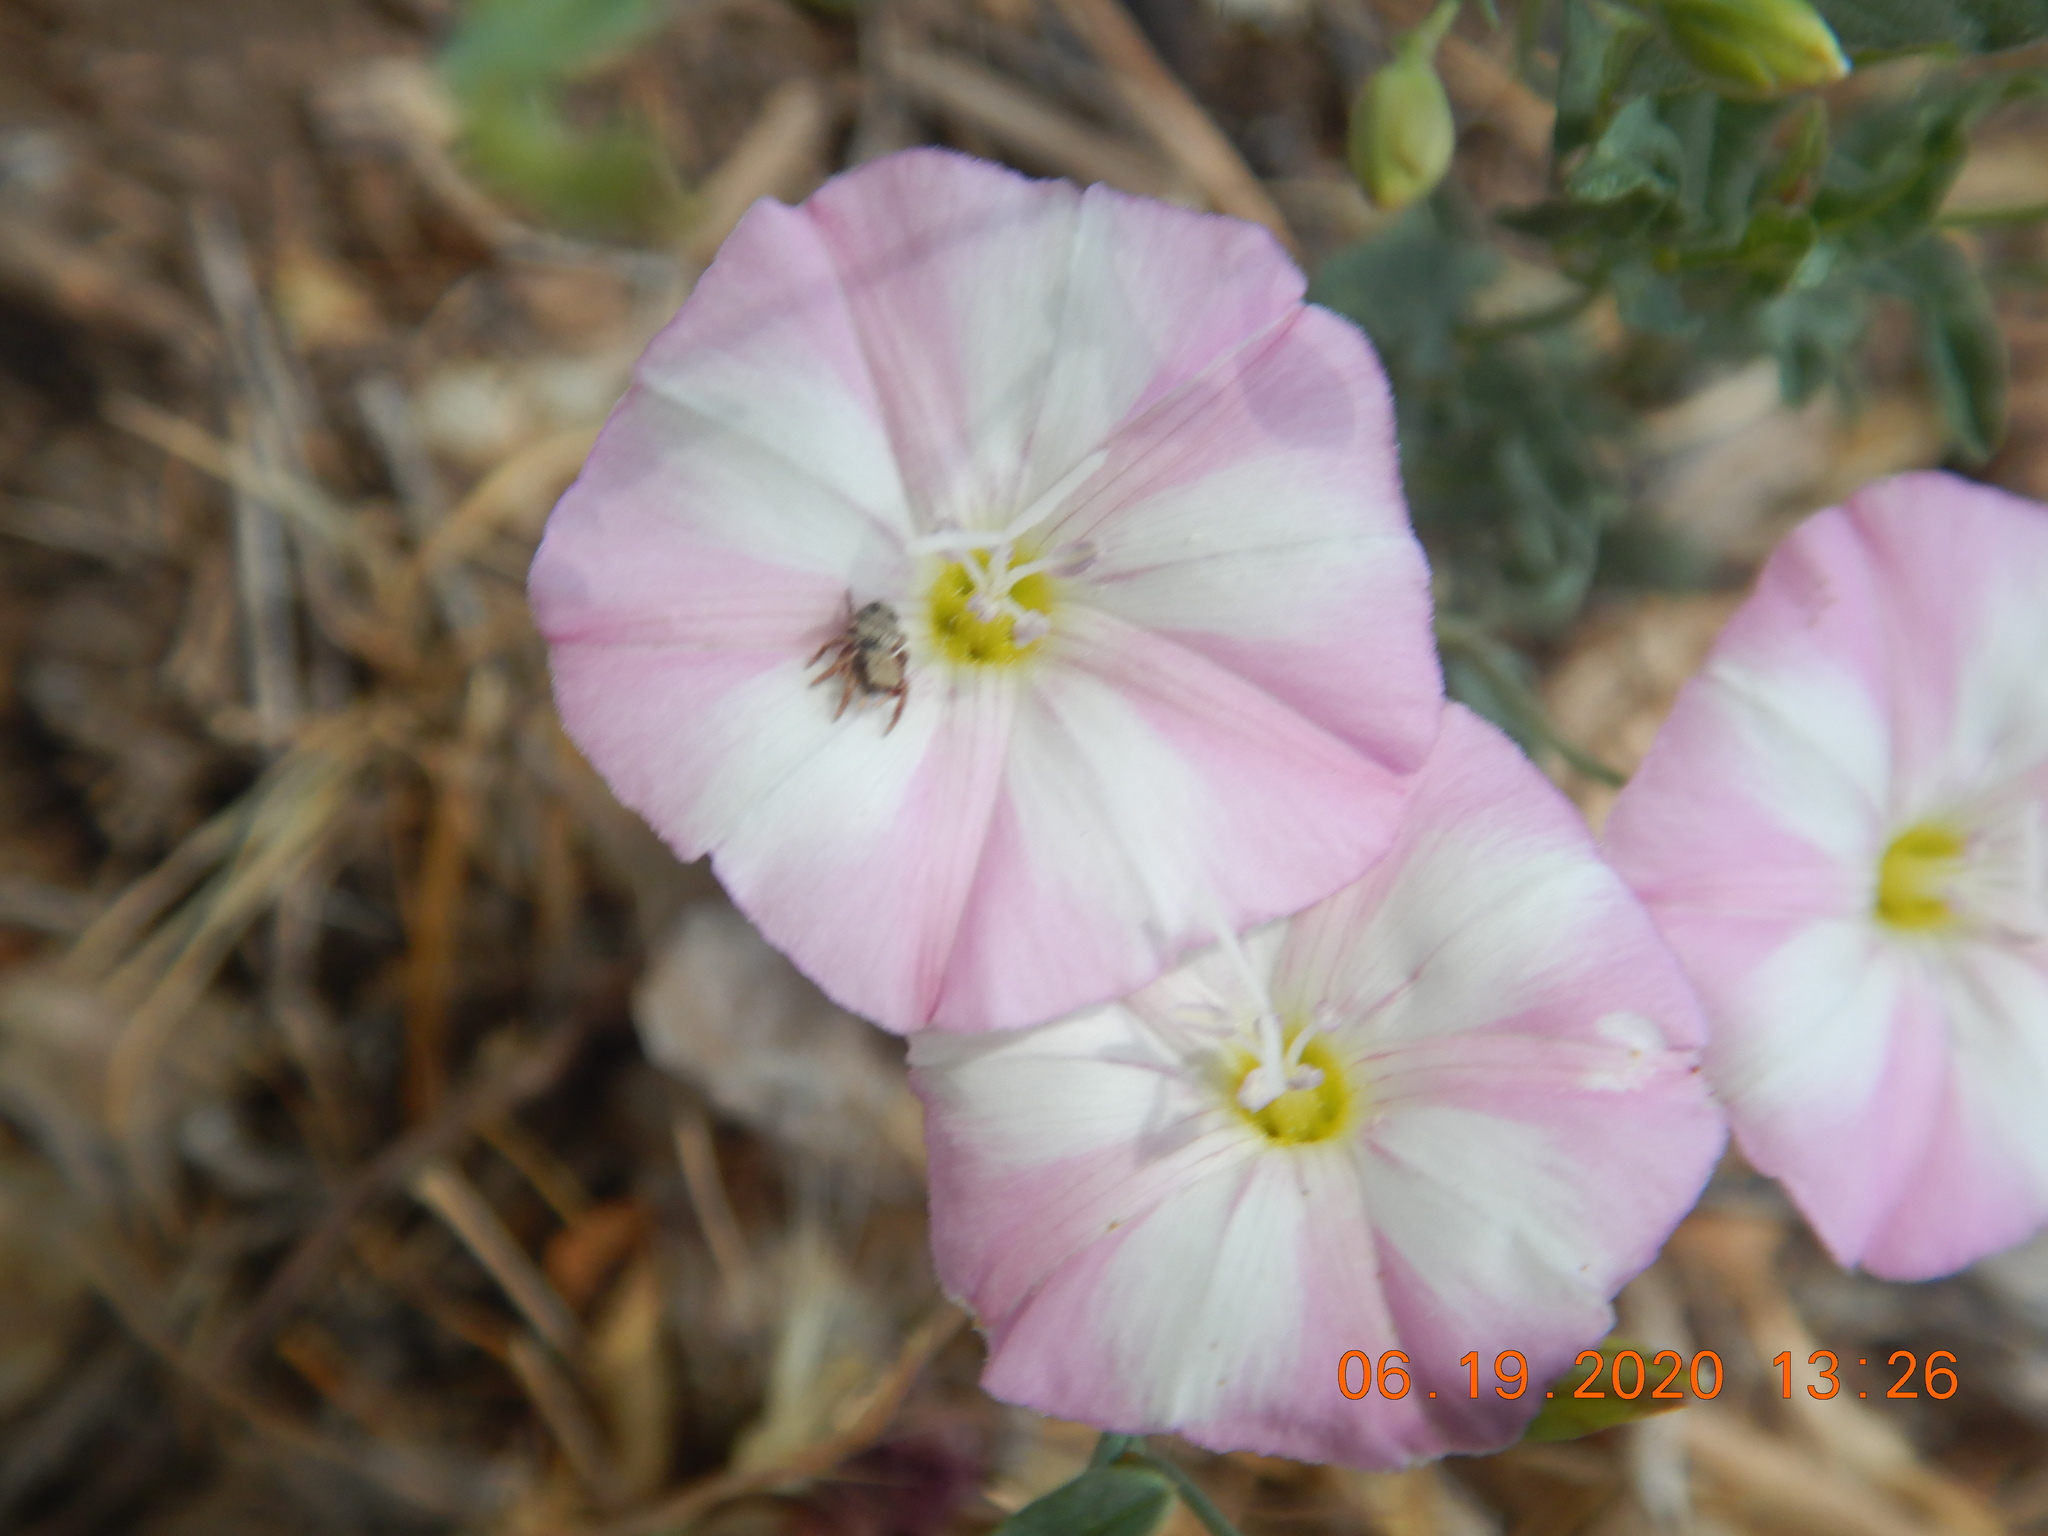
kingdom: Plantae
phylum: Tracheophyta
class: Magnoliopsida
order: Solanales
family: Convolvulaceae
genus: Convolvulus
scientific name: Convolvulus arvensis
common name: Field bindweed
